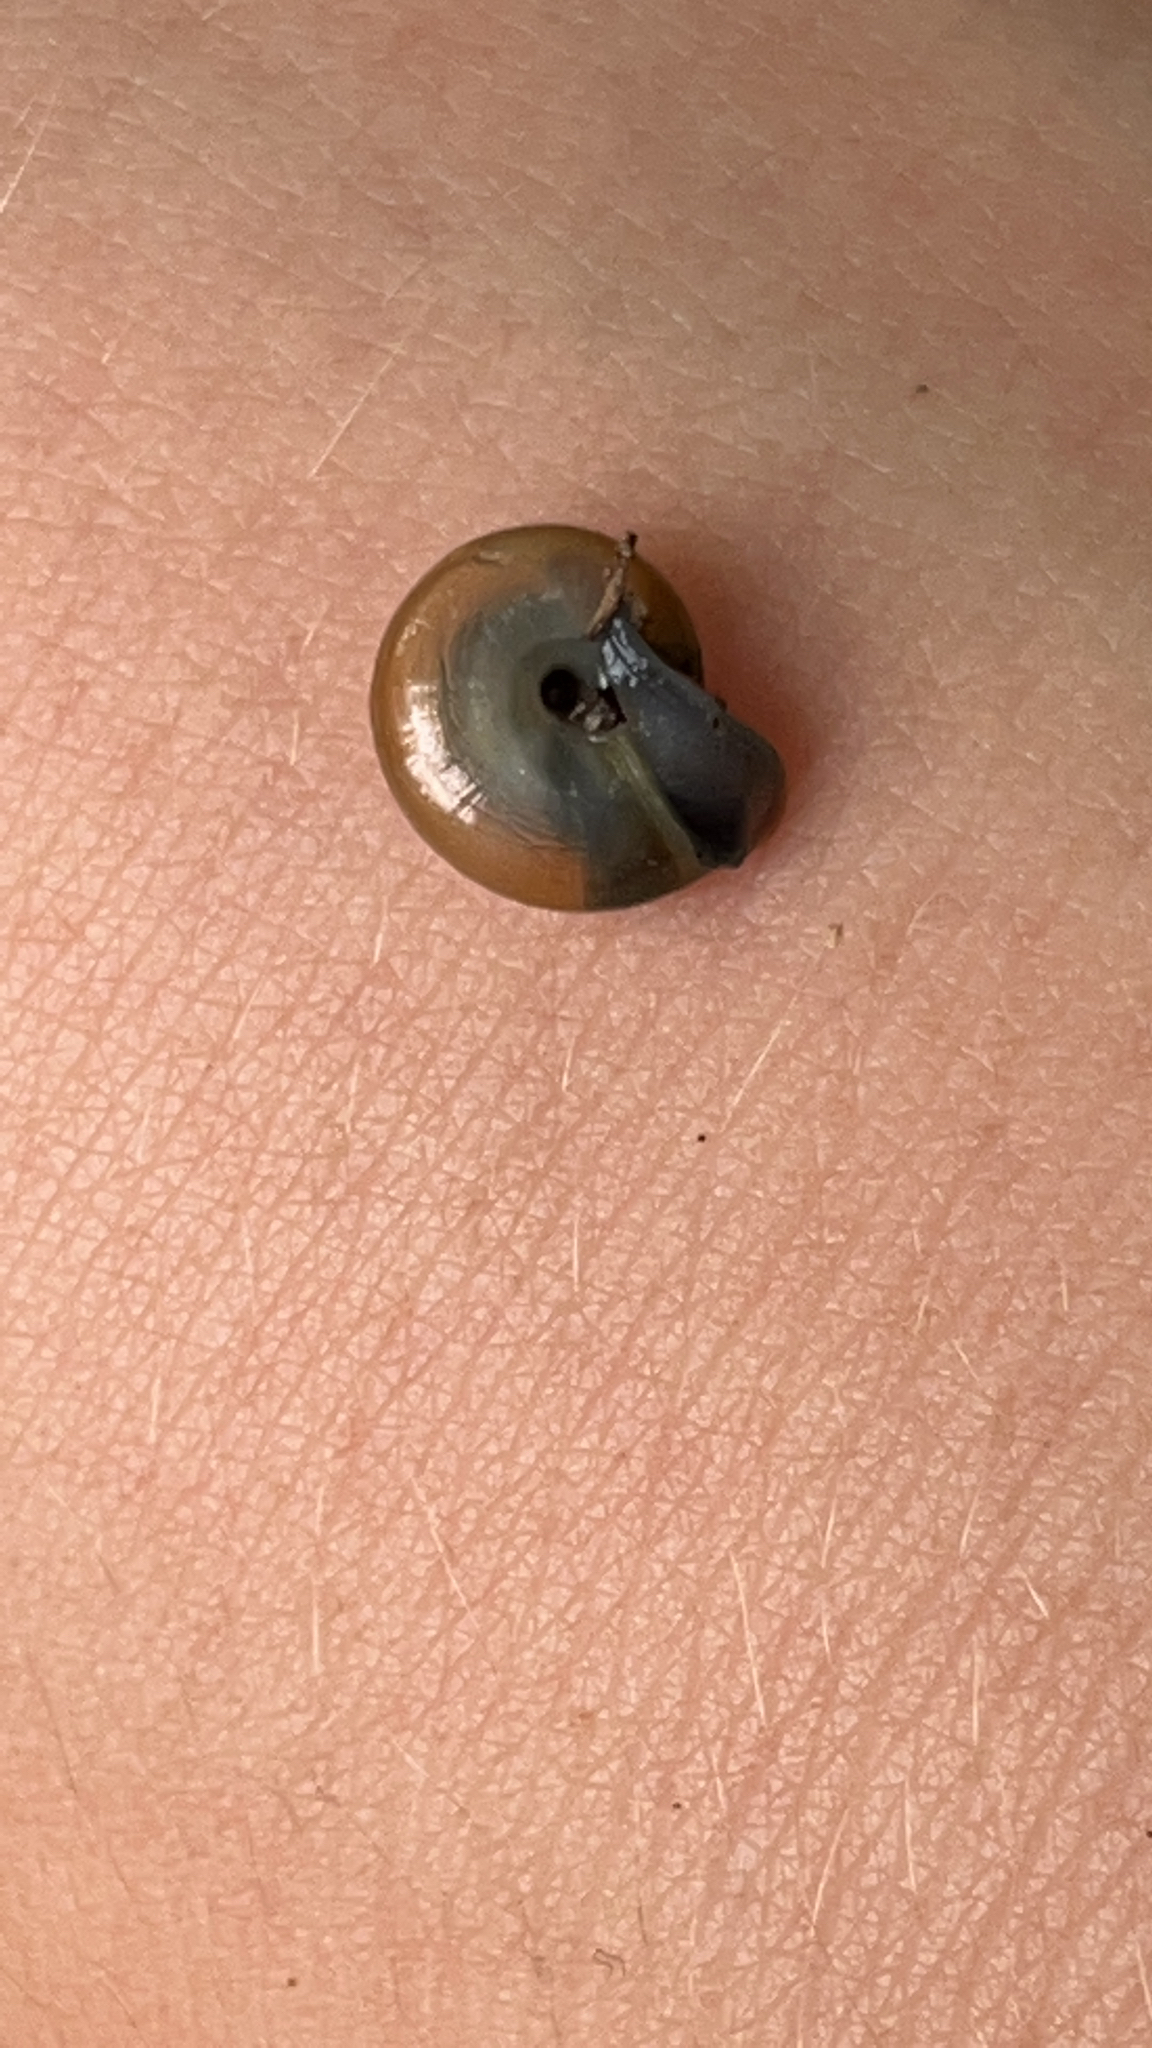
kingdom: Animalia
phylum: Mollusca
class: Gastropoda
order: Stylommatophora
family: Oxychilidae
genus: Oxychilus
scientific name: Oxychilus draparnaudi
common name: Draparnaud's glass snail
